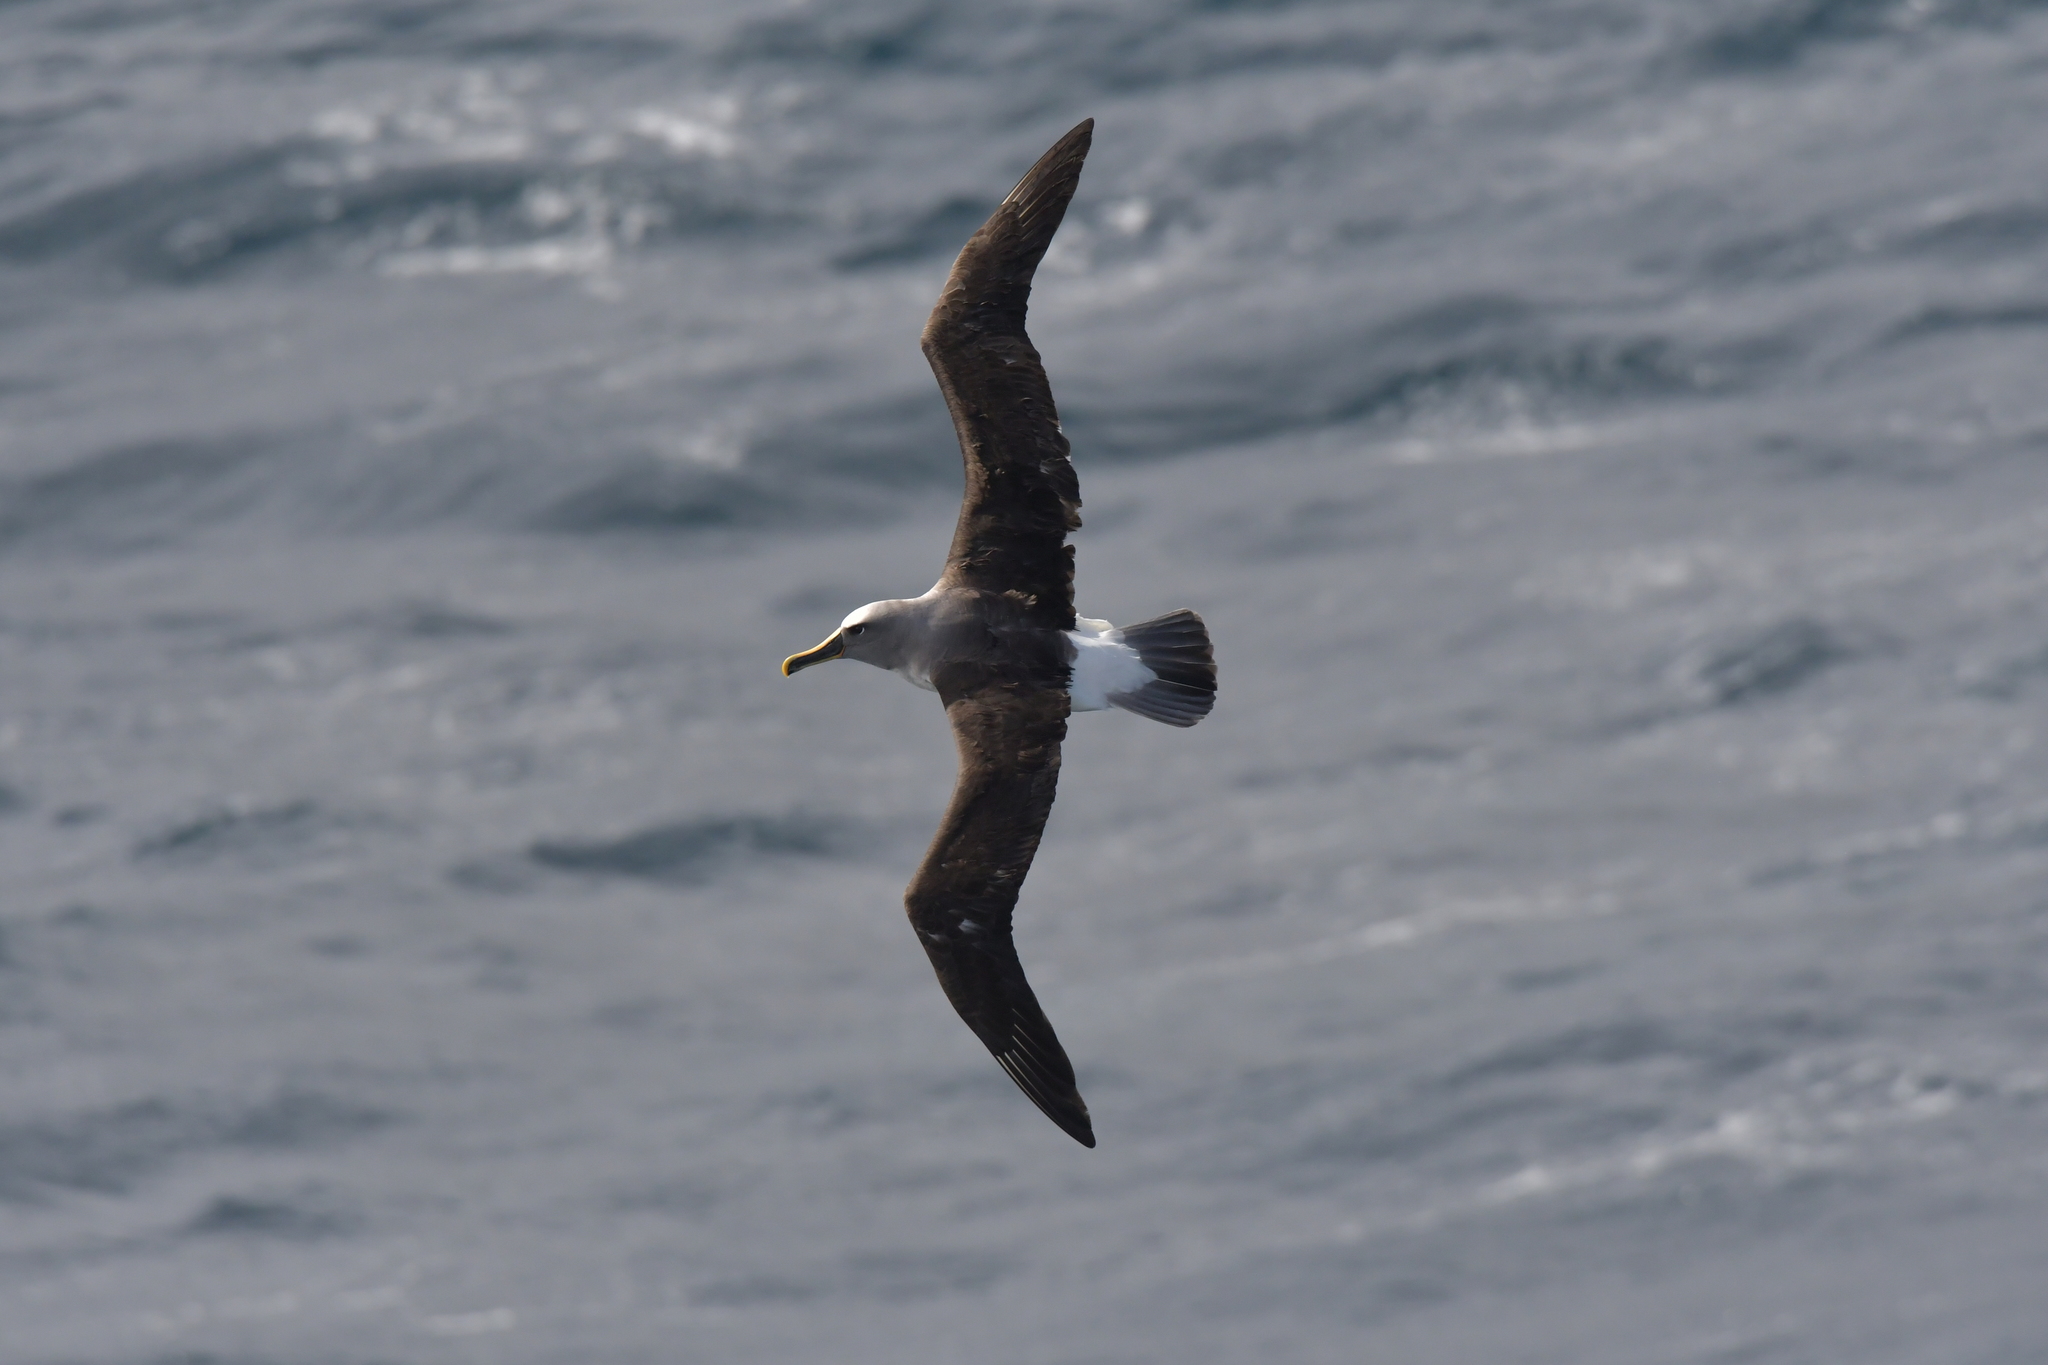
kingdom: Animalia
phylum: Chordata
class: Aves
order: Procellariiformes
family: Diomedeidae
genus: Thalassarche
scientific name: Thalassarche bulleri
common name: Buller's albatross
